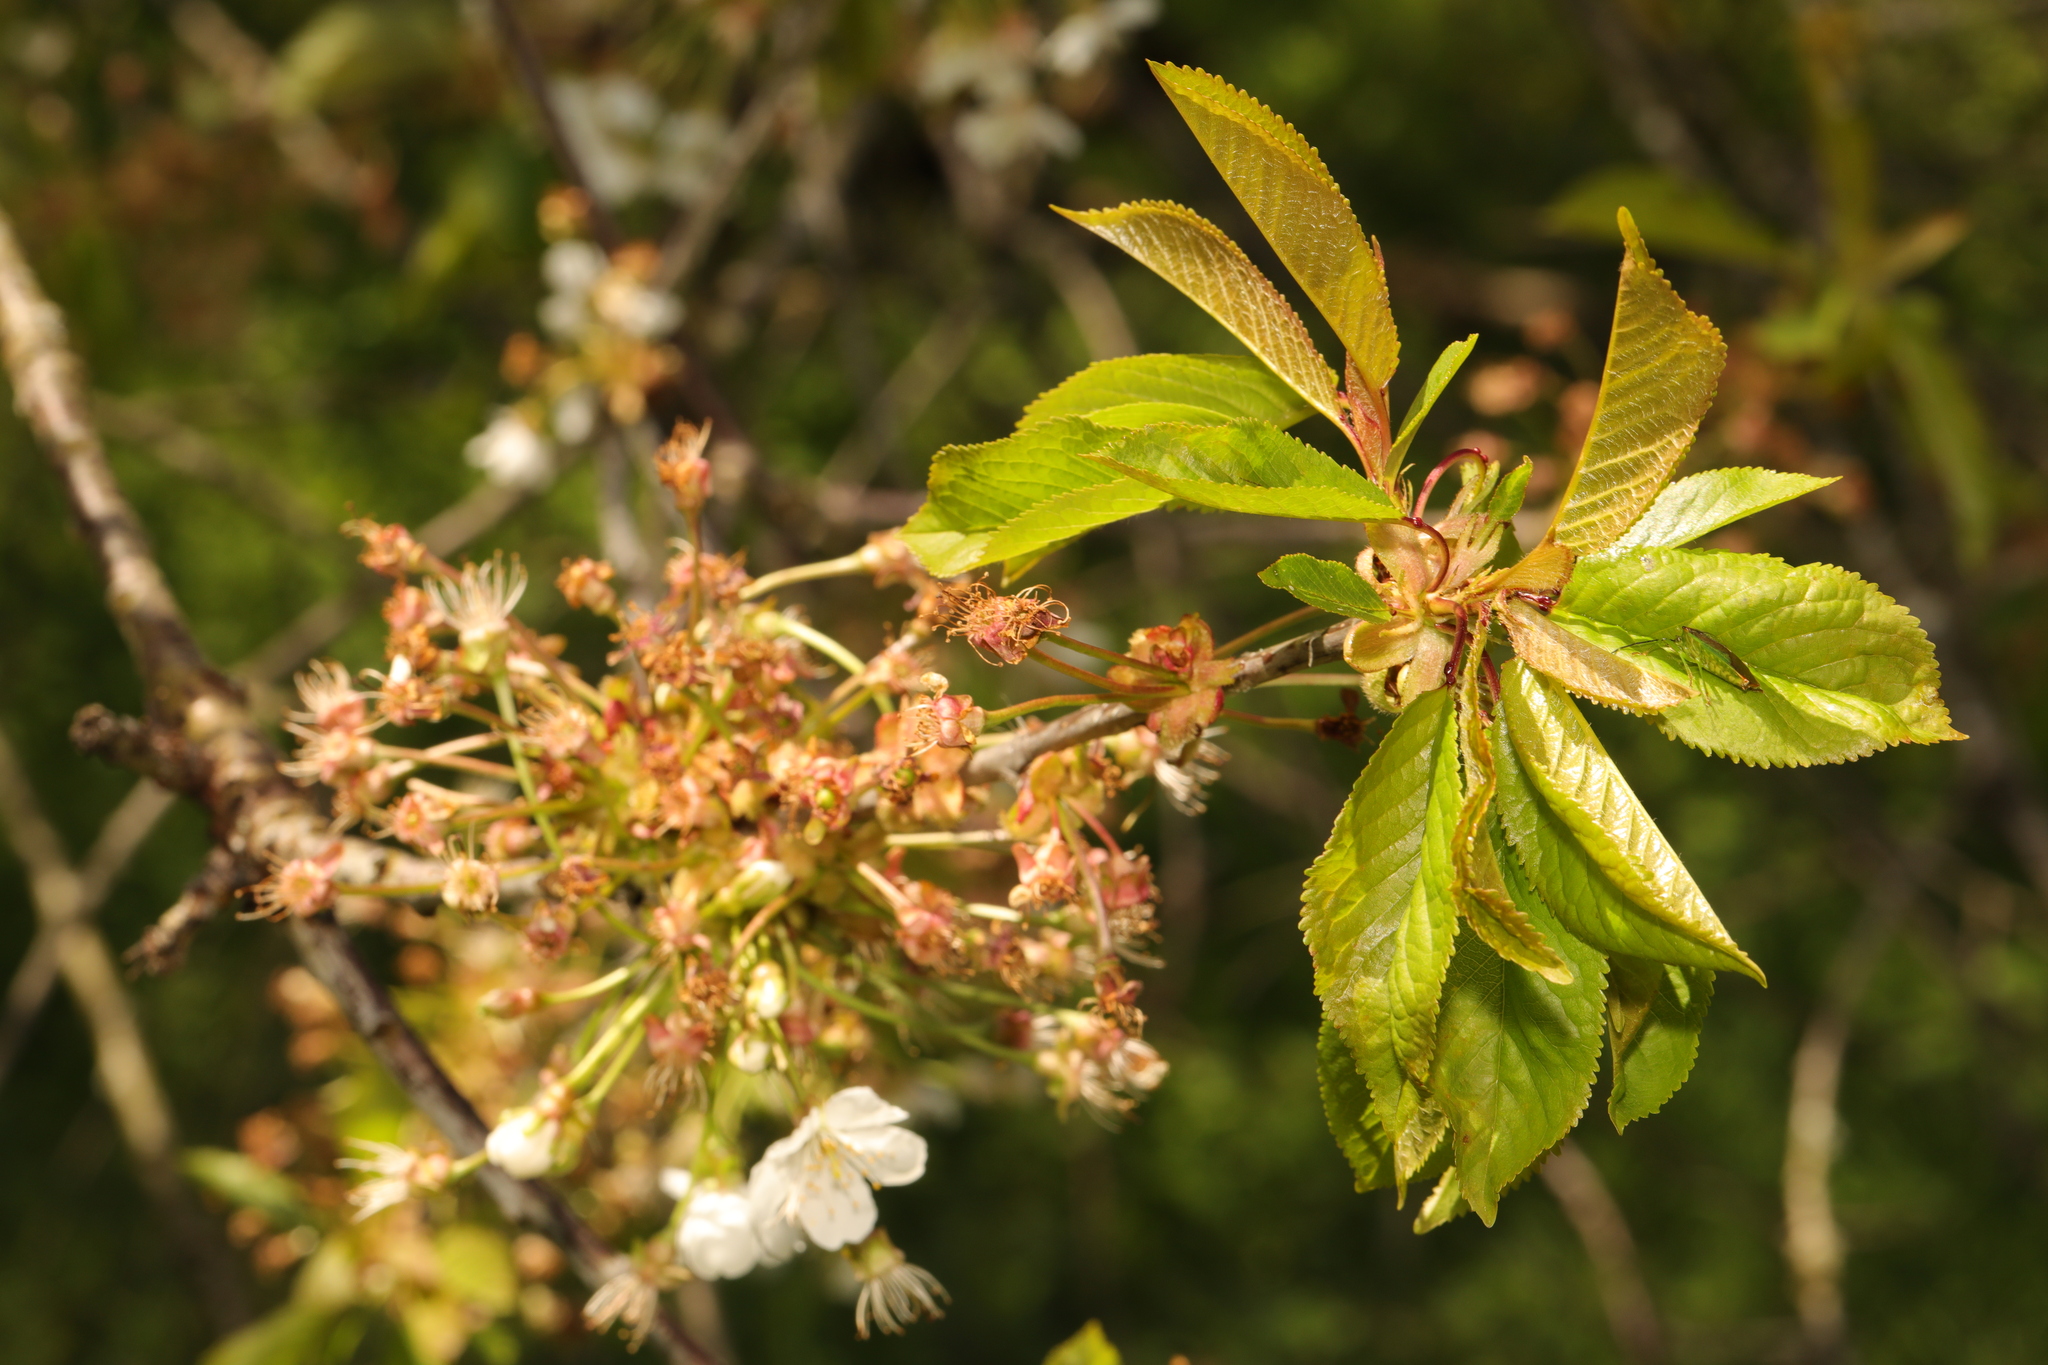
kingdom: Plantae
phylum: Tracheophyta
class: Magnoliopsida
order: Rosales
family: Rosaceae
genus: Prunus
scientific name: Prunus avium
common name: Sweet cherry
